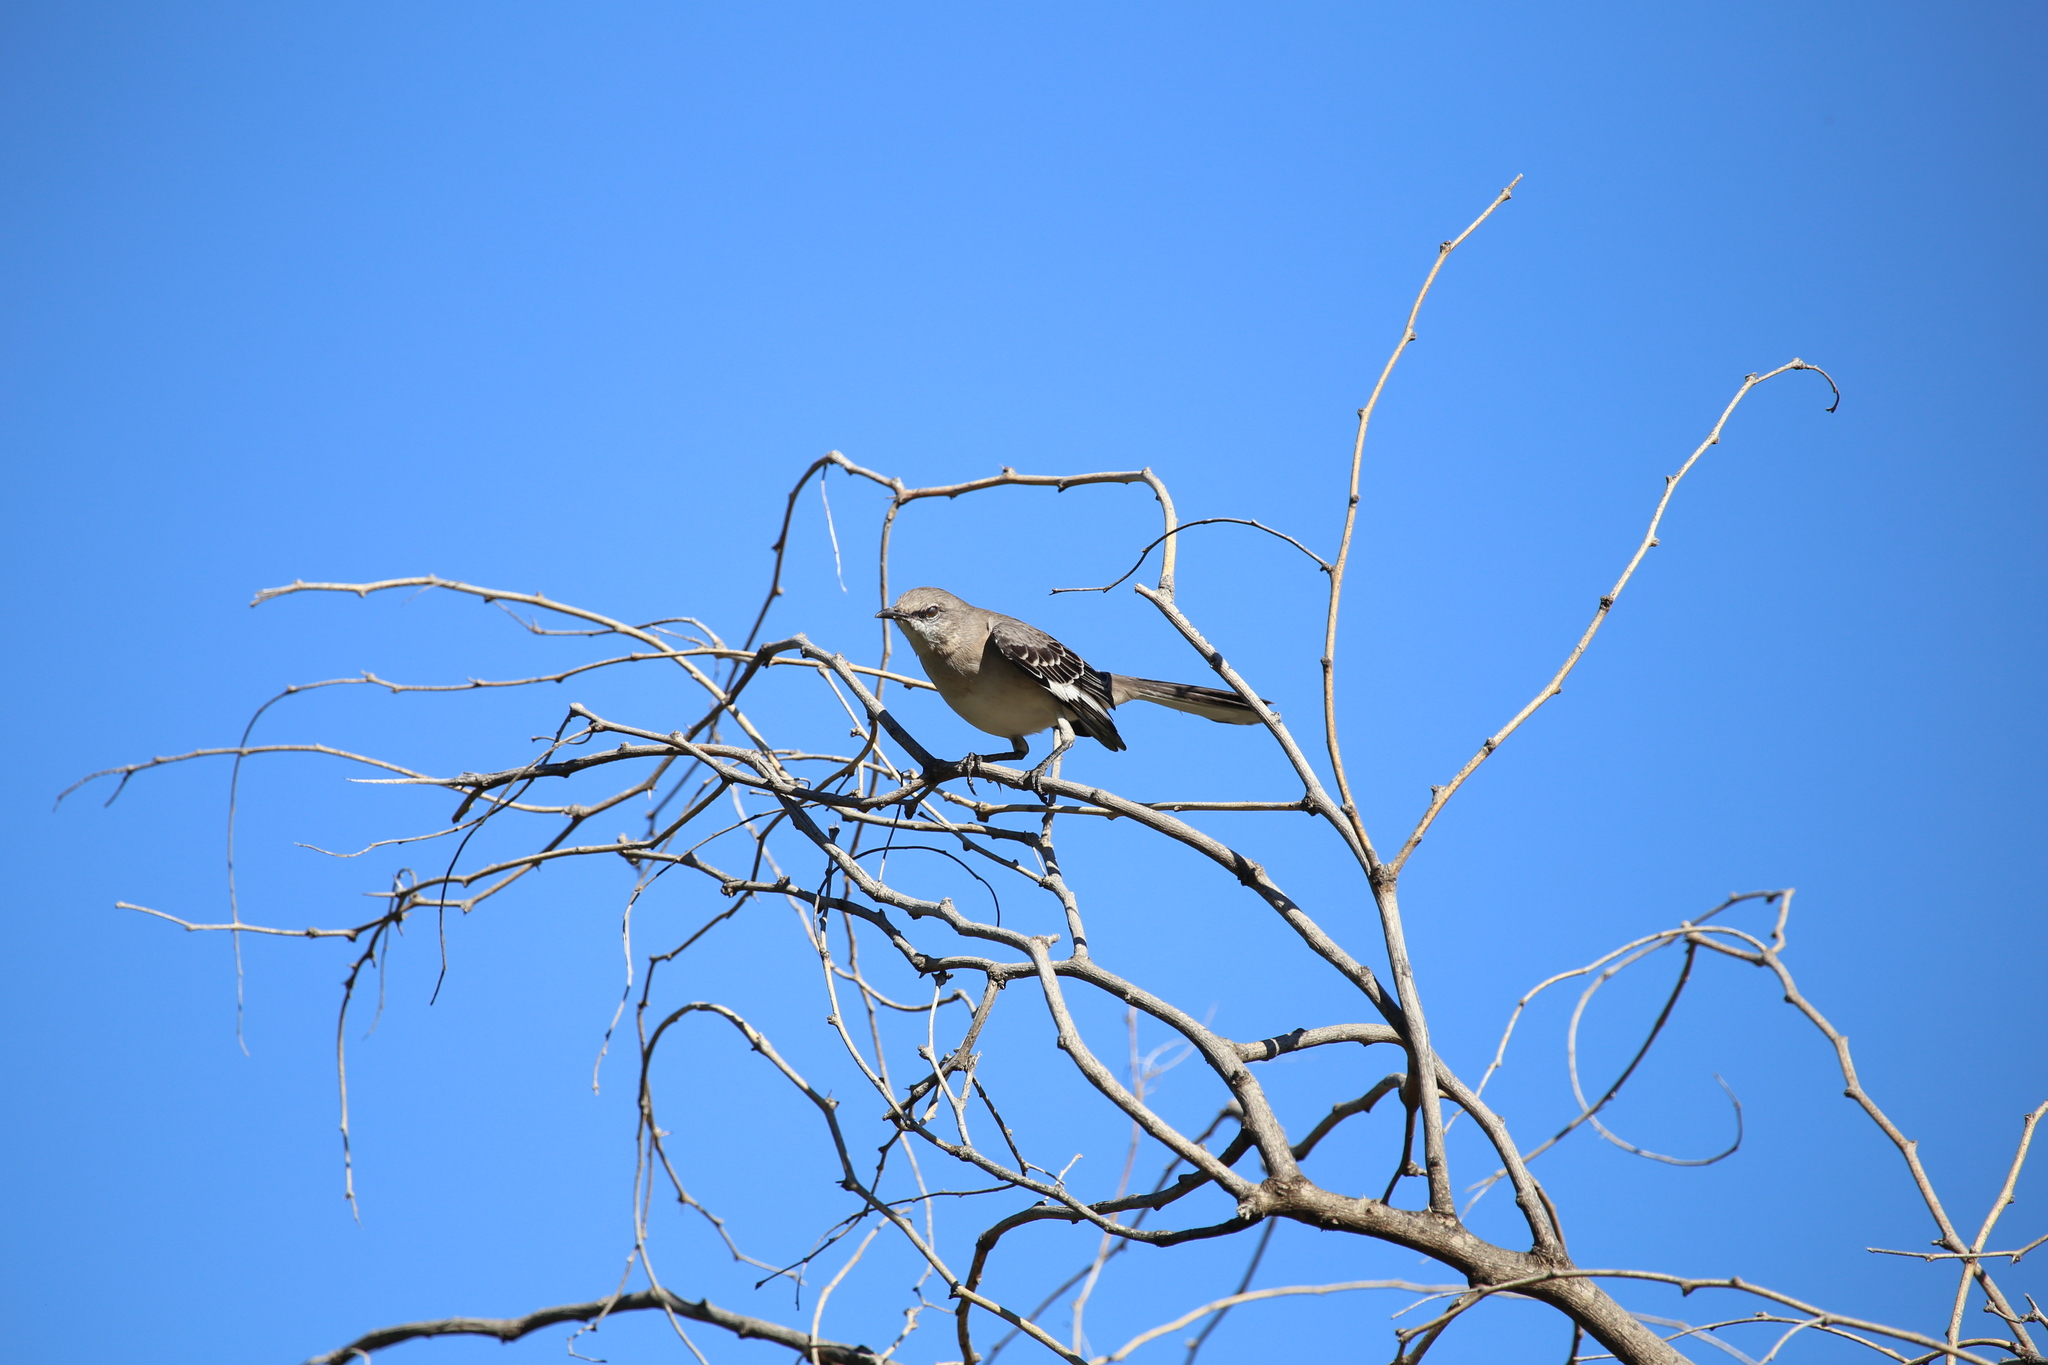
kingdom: Animalia
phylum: Chordata
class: Aves
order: Passeriformes
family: Mimidae
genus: Mimus
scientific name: Mimus polyglottos
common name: Northern mockingbird
